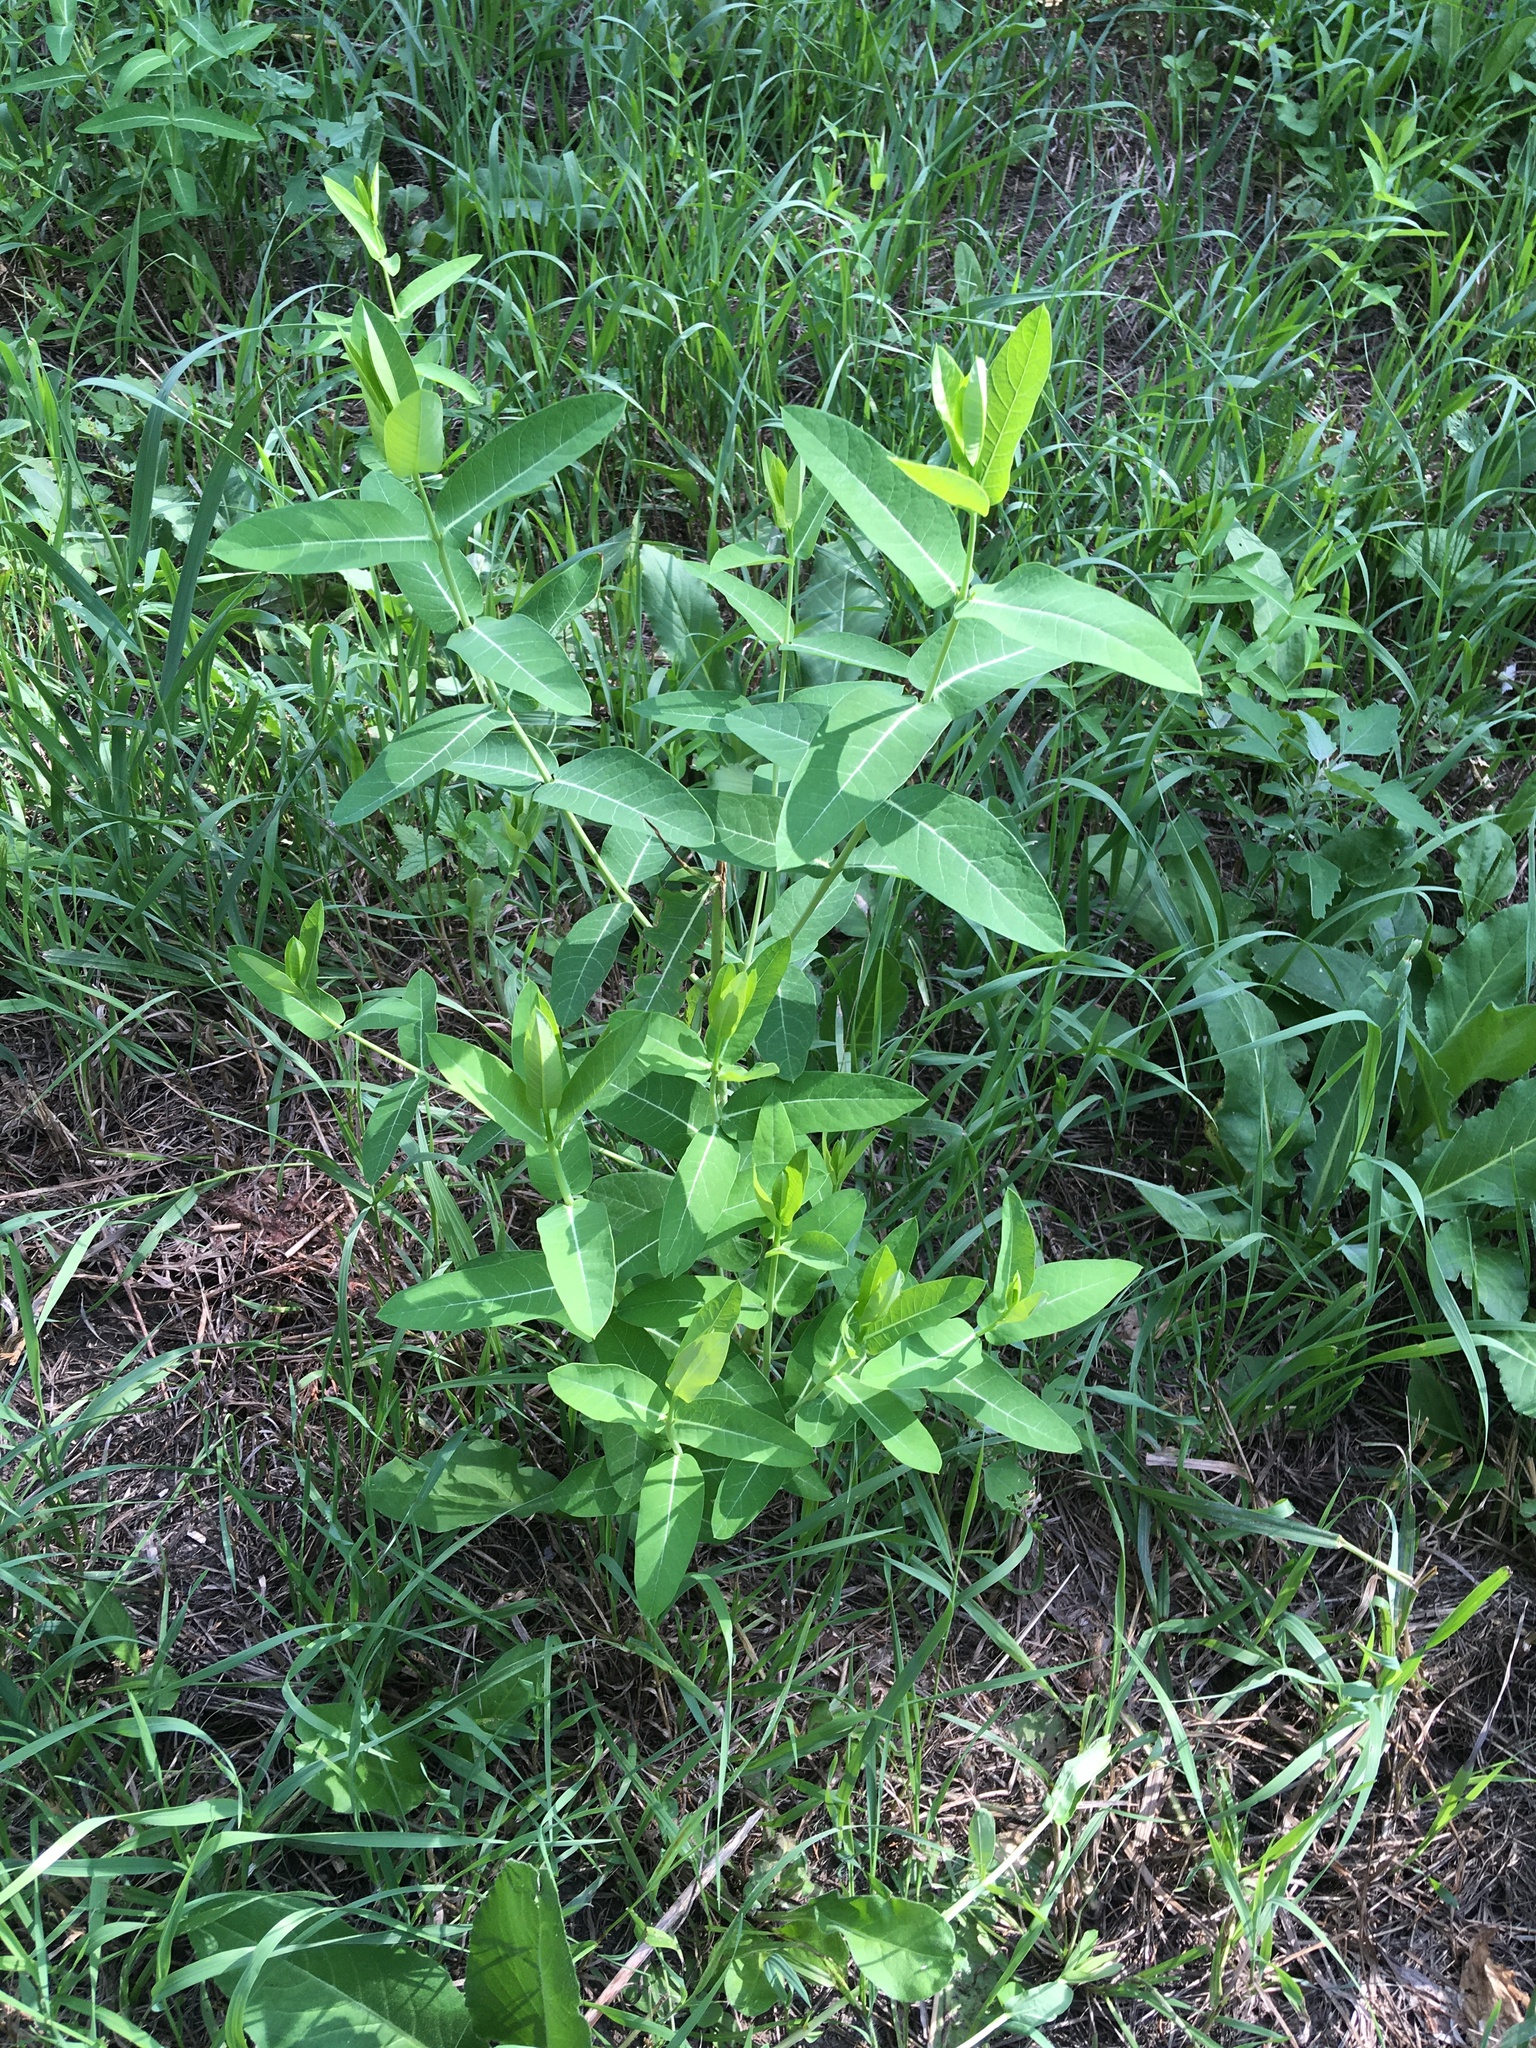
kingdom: Plantae
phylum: Tracheophyta
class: Magnoliopsida
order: Gentianales
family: Apocynaceae
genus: Apocynum
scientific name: Apocynum cannabinum
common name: Hemp dogbane
